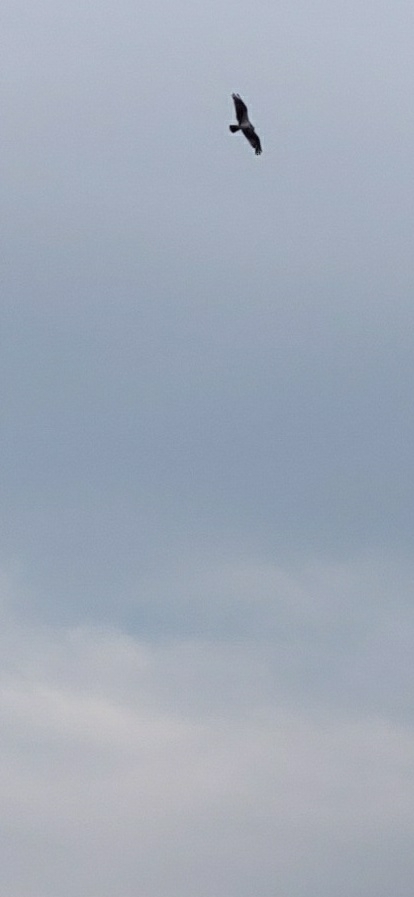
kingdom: Animalia
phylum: Chordata
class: Aves
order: Accipitriformes
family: Pandionidae
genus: Pandion
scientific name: Pandion haliaetus
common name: Osprey
